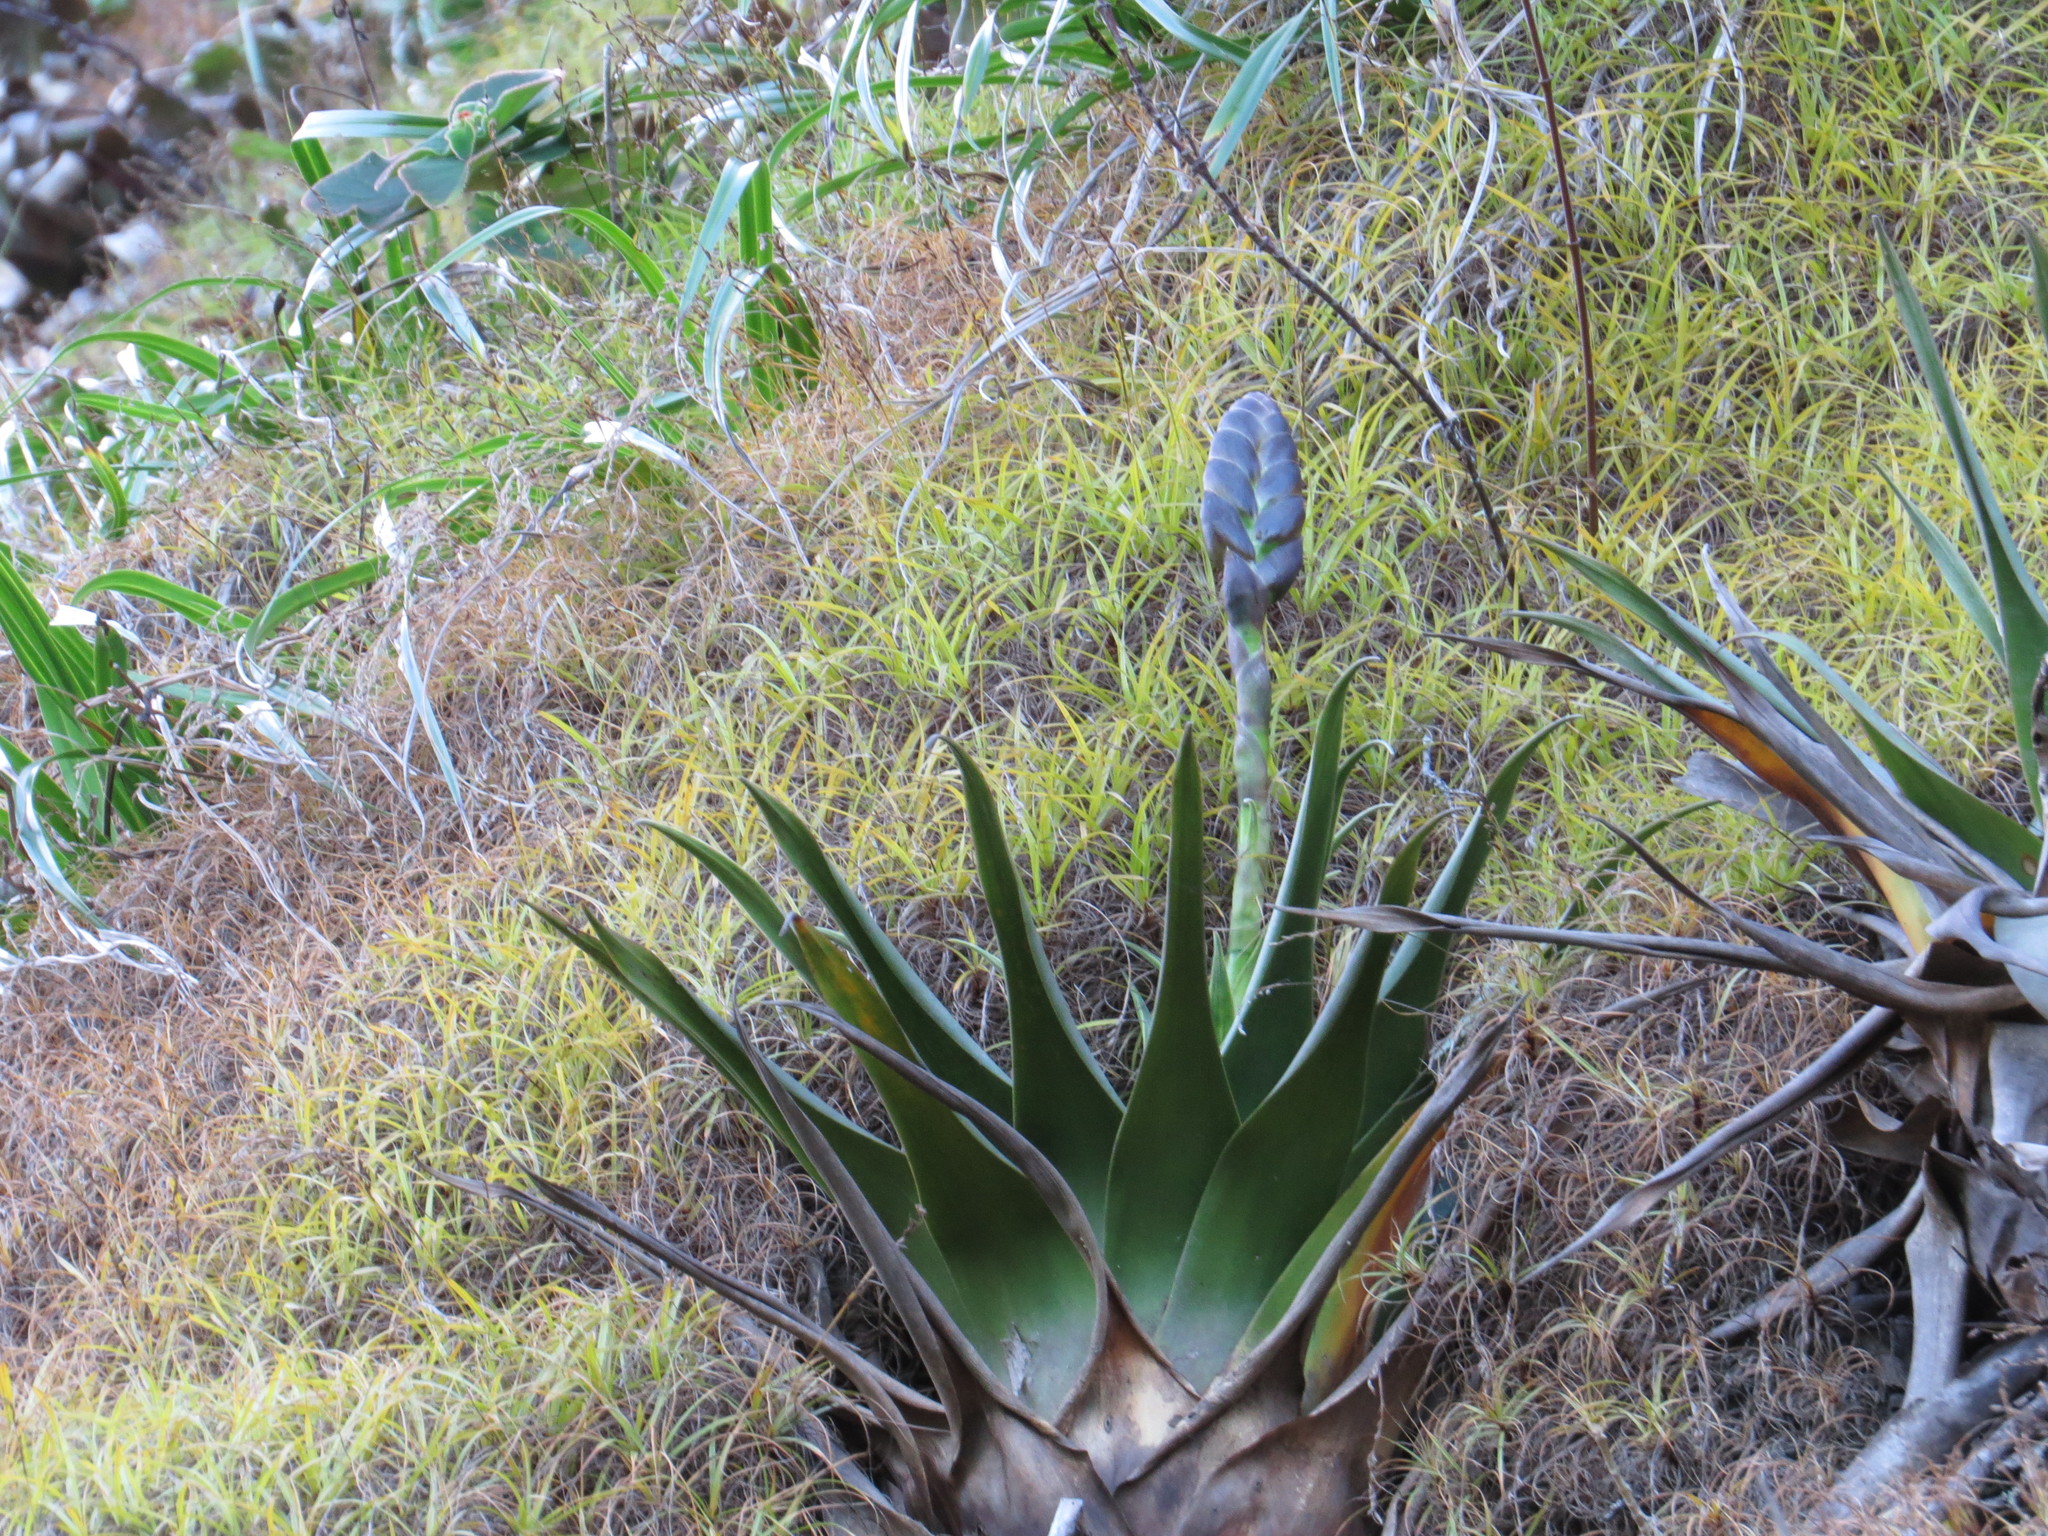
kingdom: Plantae
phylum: Tracheophyta
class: Liliopsida
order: Poales
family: Bromeliaceae
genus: Stigmatodon
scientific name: Stigmatodon goniorachis
